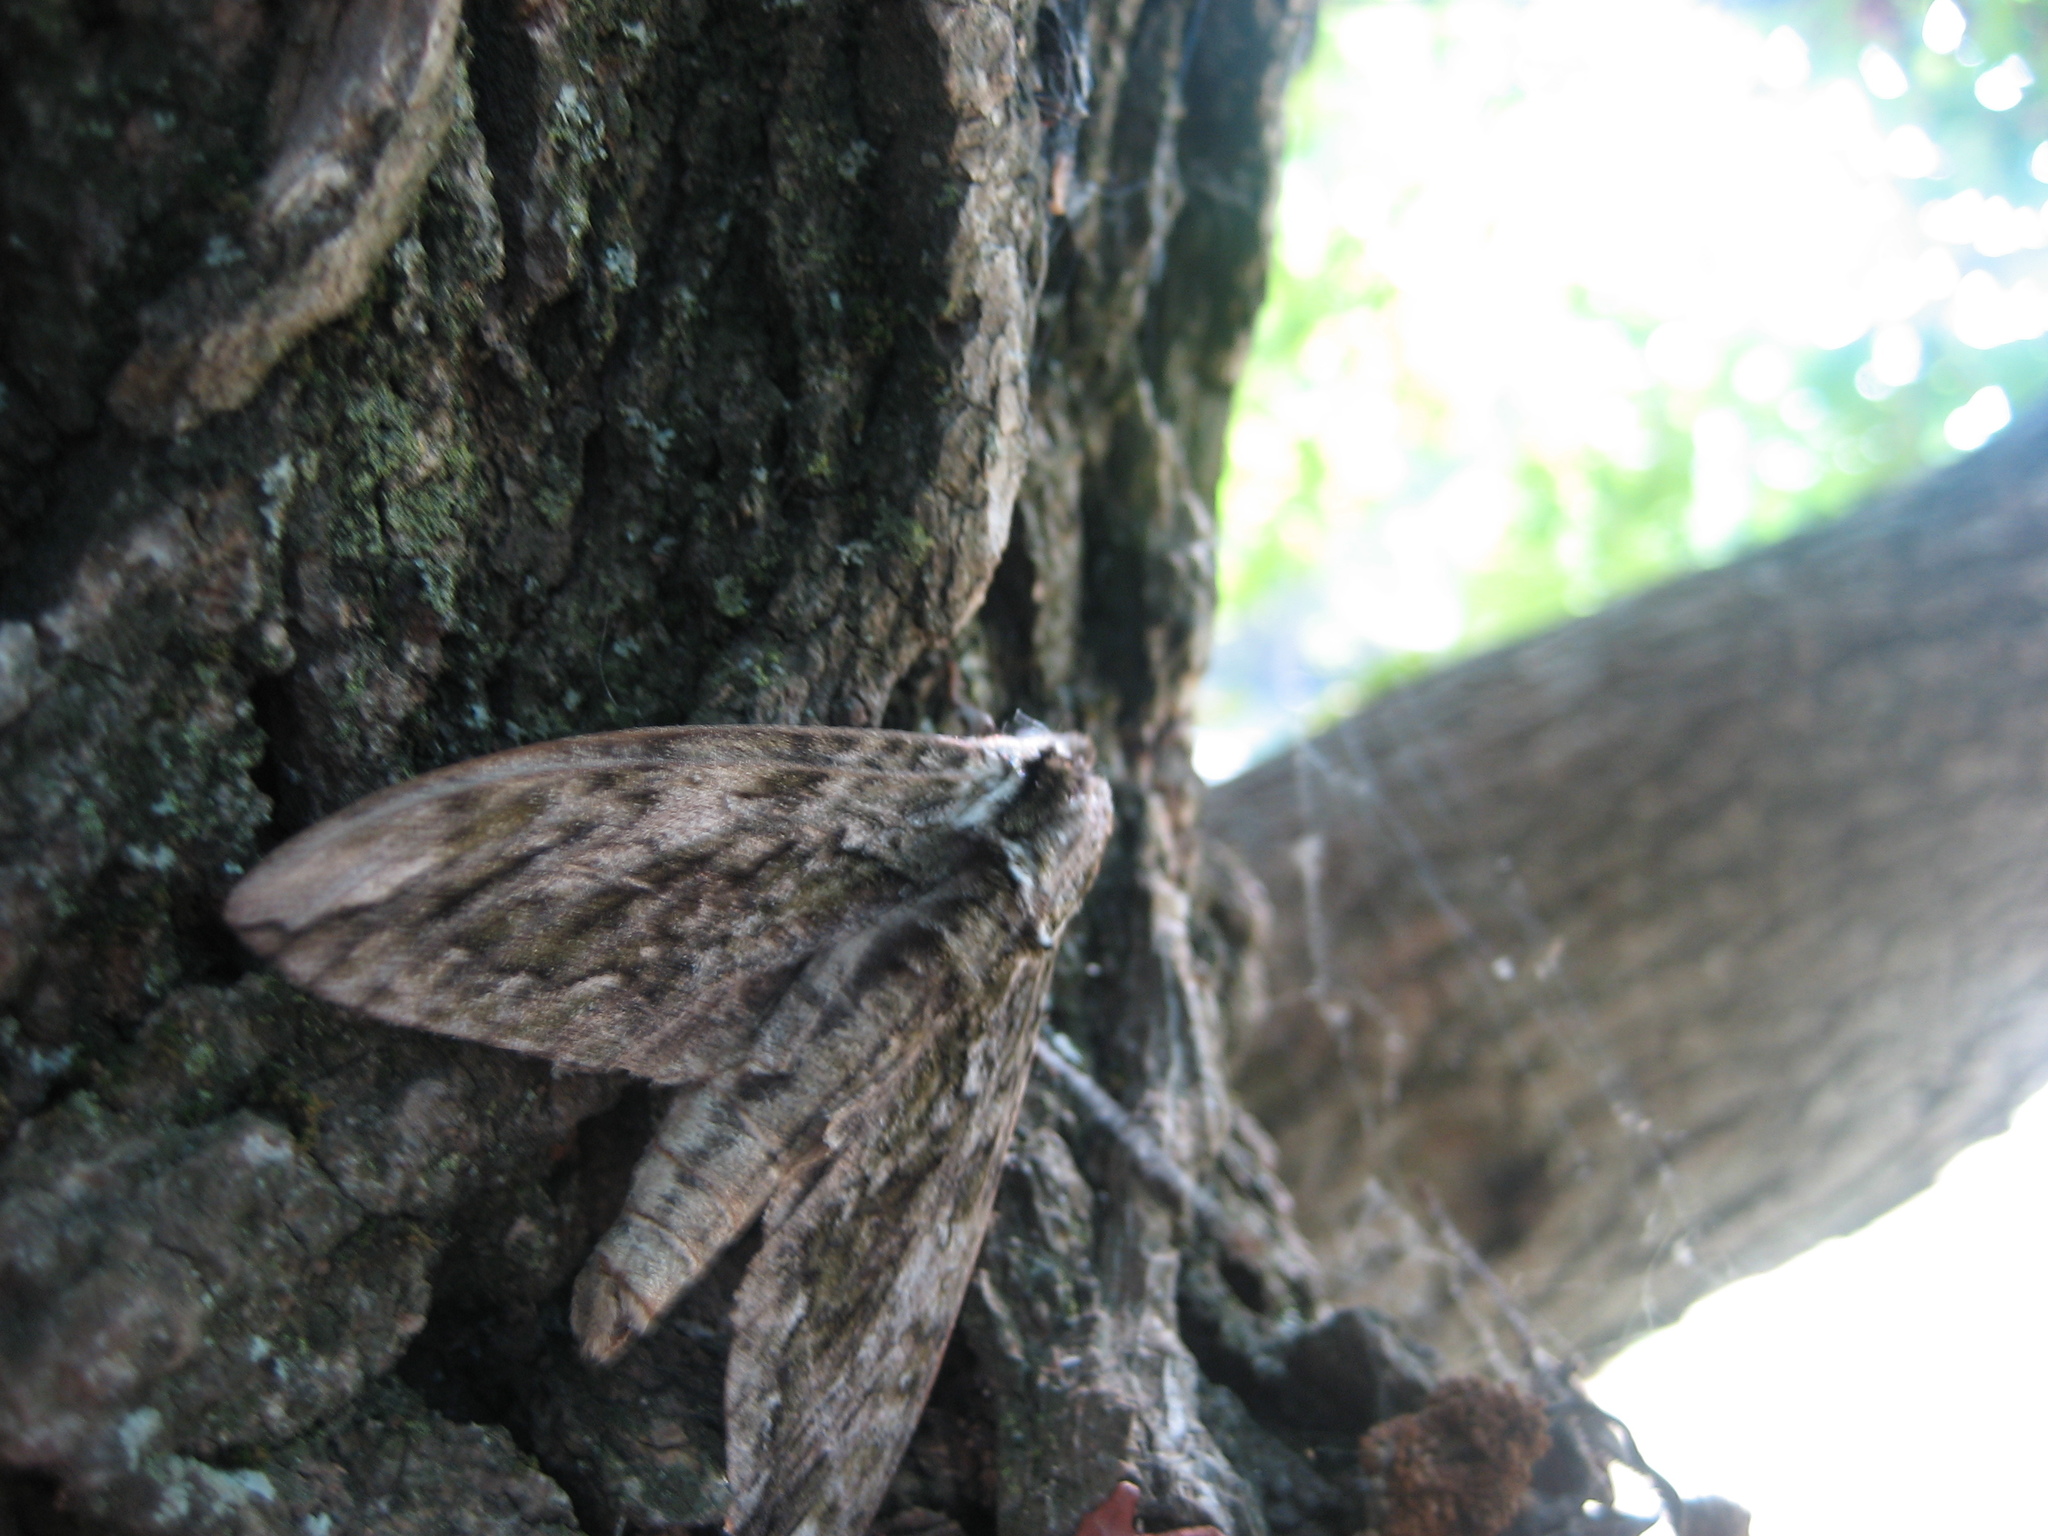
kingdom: Animalia
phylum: Arthropoda
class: Insecta
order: Lepidoptera
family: Sphingidae
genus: Ceratomia
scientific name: Ceratomia hageni
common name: Hagen's sphinx
